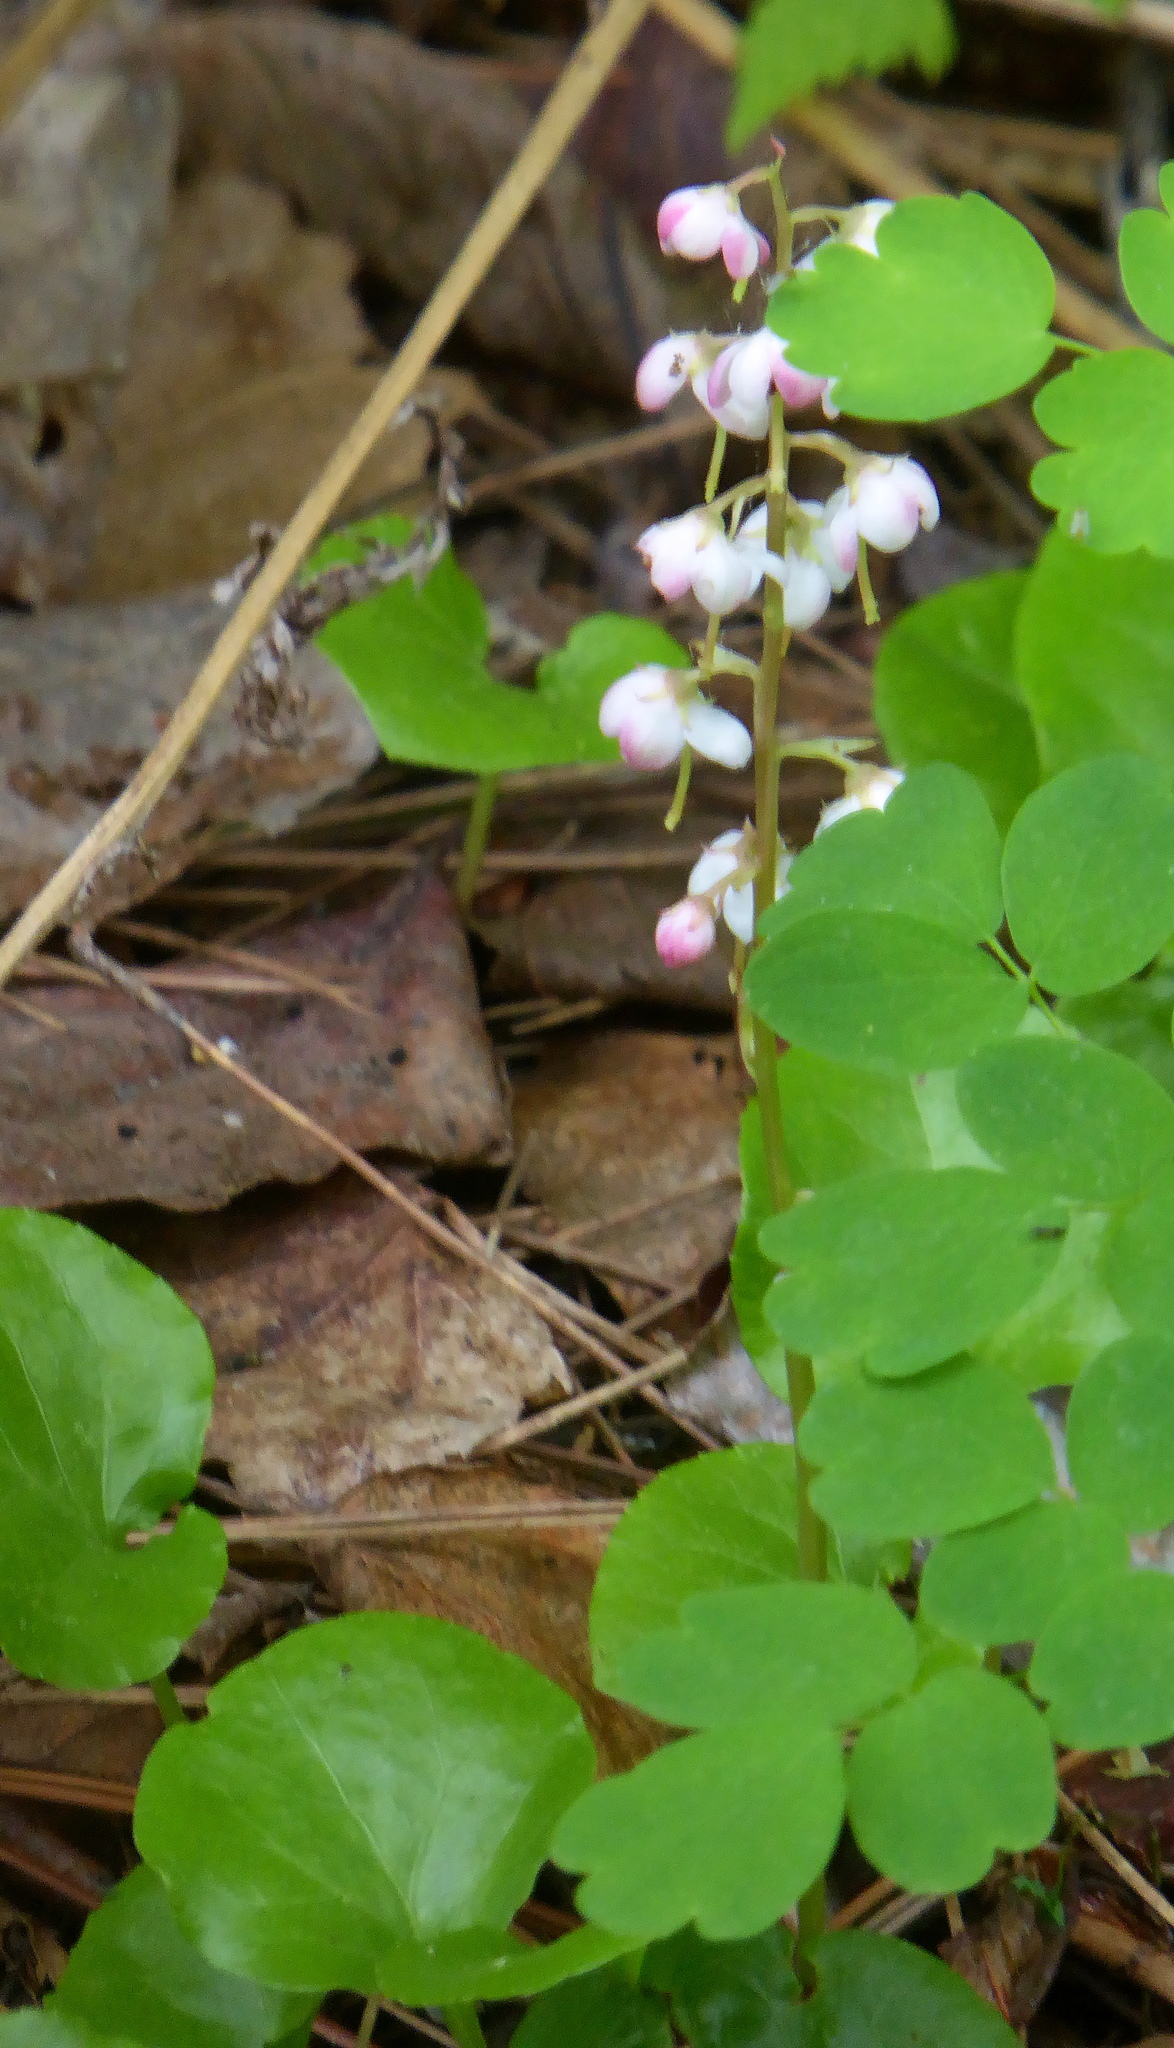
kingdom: Plantae
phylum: Tracheophyta
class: Magnoliopsida
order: Ericales
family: Ericaceae
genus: Pyrola
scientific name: Pyrola asarifolia
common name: Bog wintergreen
